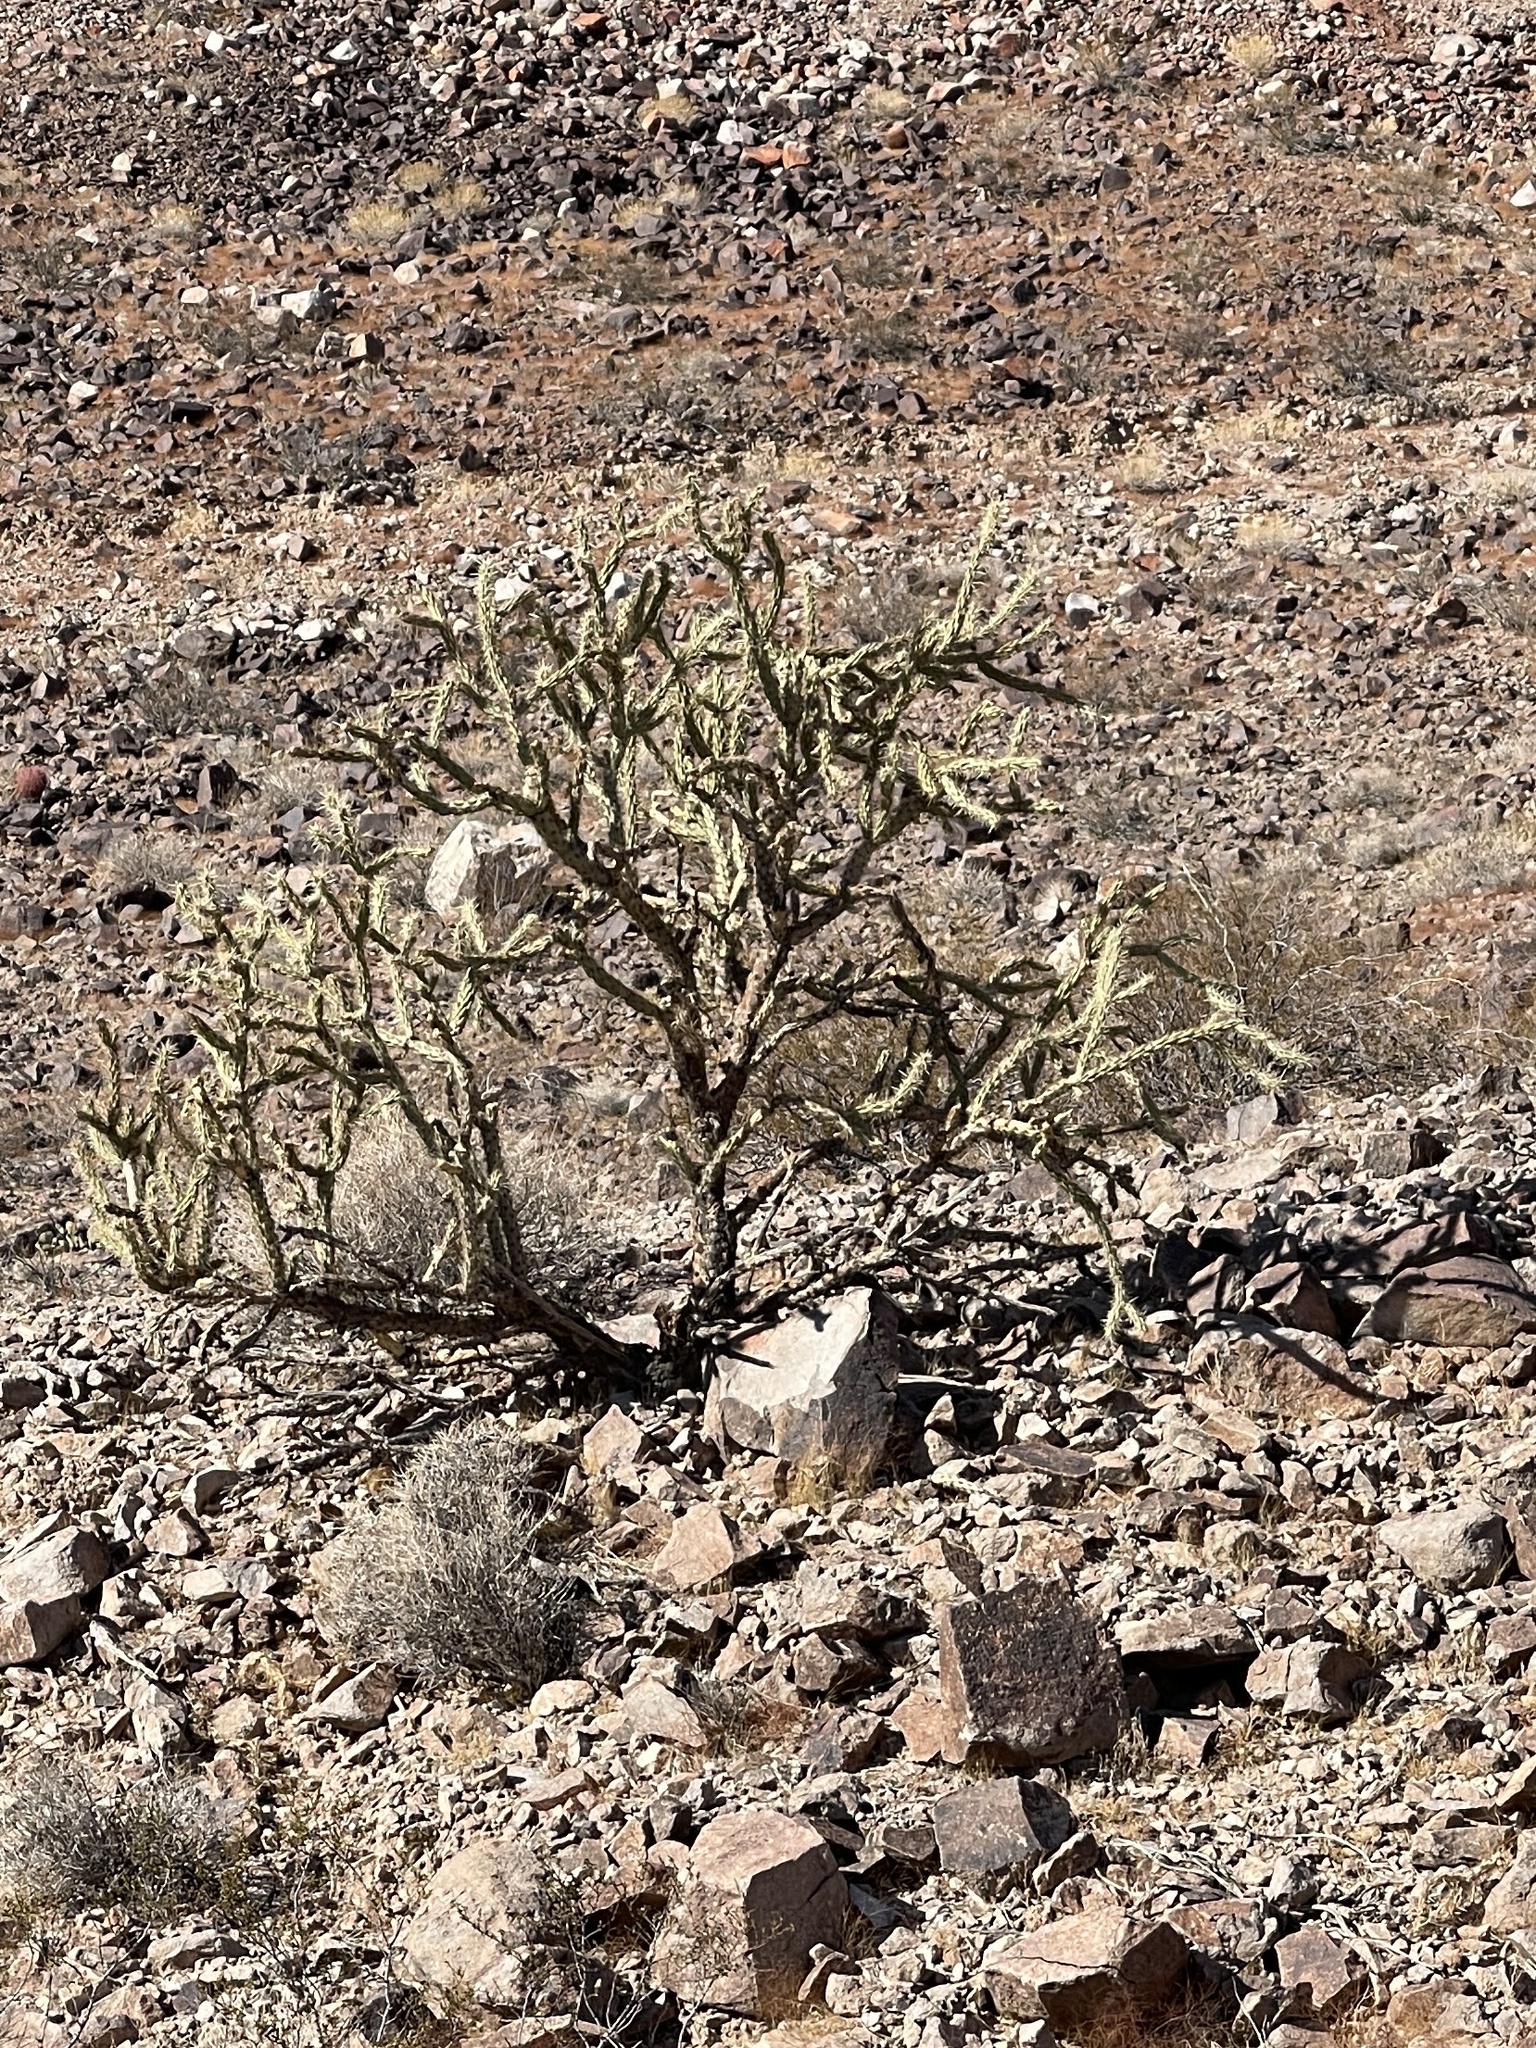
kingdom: Plantae
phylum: Tracheophyta
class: Magnoliopsida
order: Caryophyllales
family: Cactaceae
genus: Cylindropuntia
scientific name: Cylindropuntia acanthocarpa
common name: Buckhorn cholla
